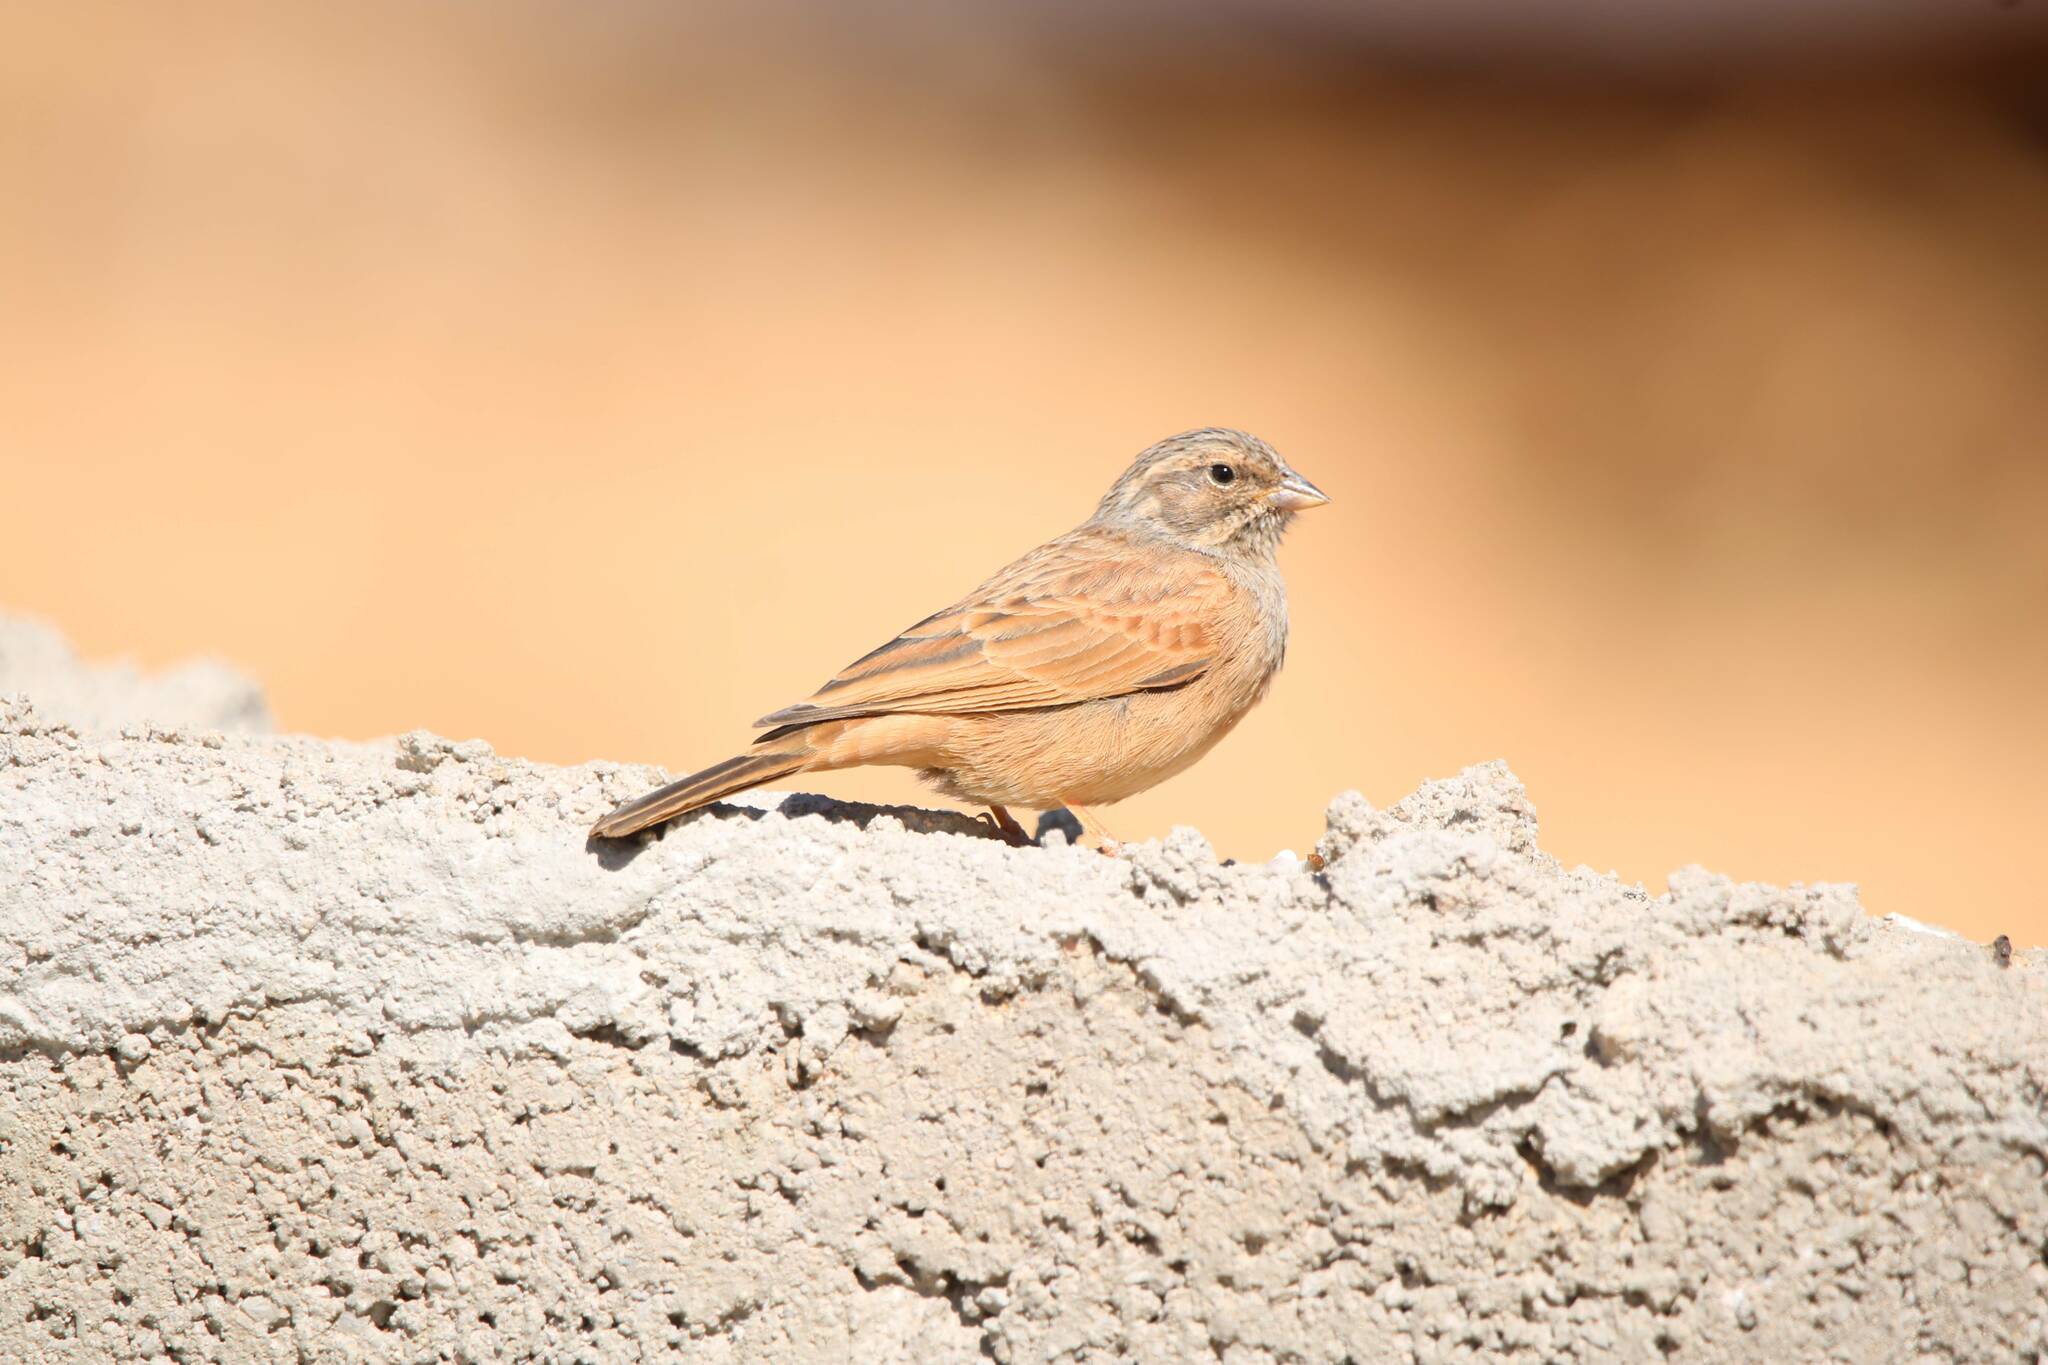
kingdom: Animalia
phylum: Chordata
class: Aves
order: Passeriformes
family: Emberizidae
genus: Emberiza
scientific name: Emberiza sahari
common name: House bunting
